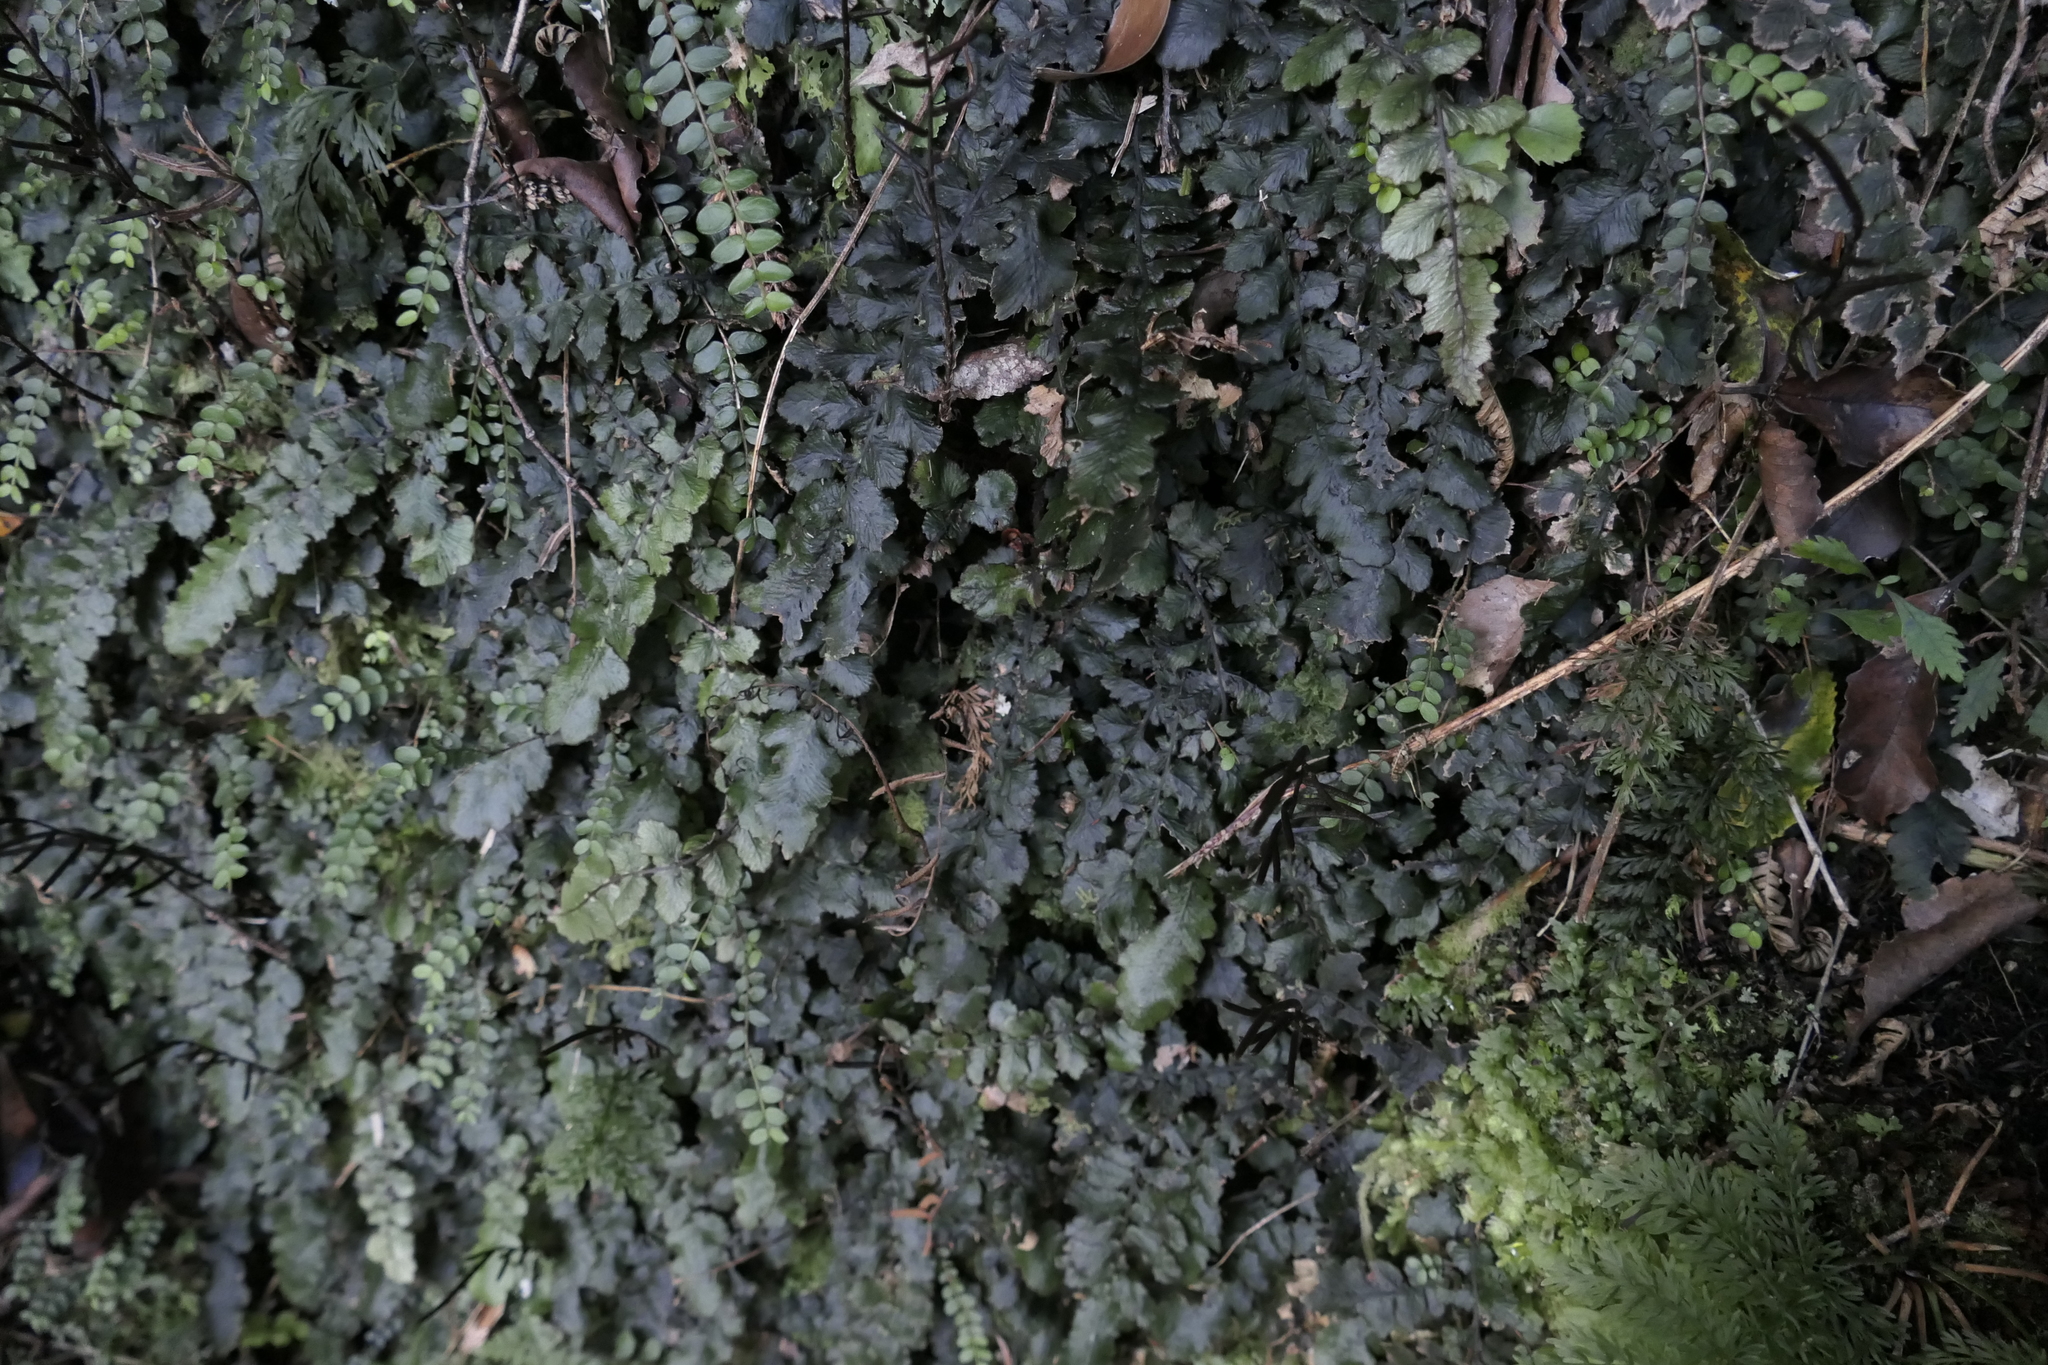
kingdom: Plantae
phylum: Tracheophyta
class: Polypodiopsida
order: Polypodiales
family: Blechnaceae
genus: Cranfillia
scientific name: Cranfillia nigra
